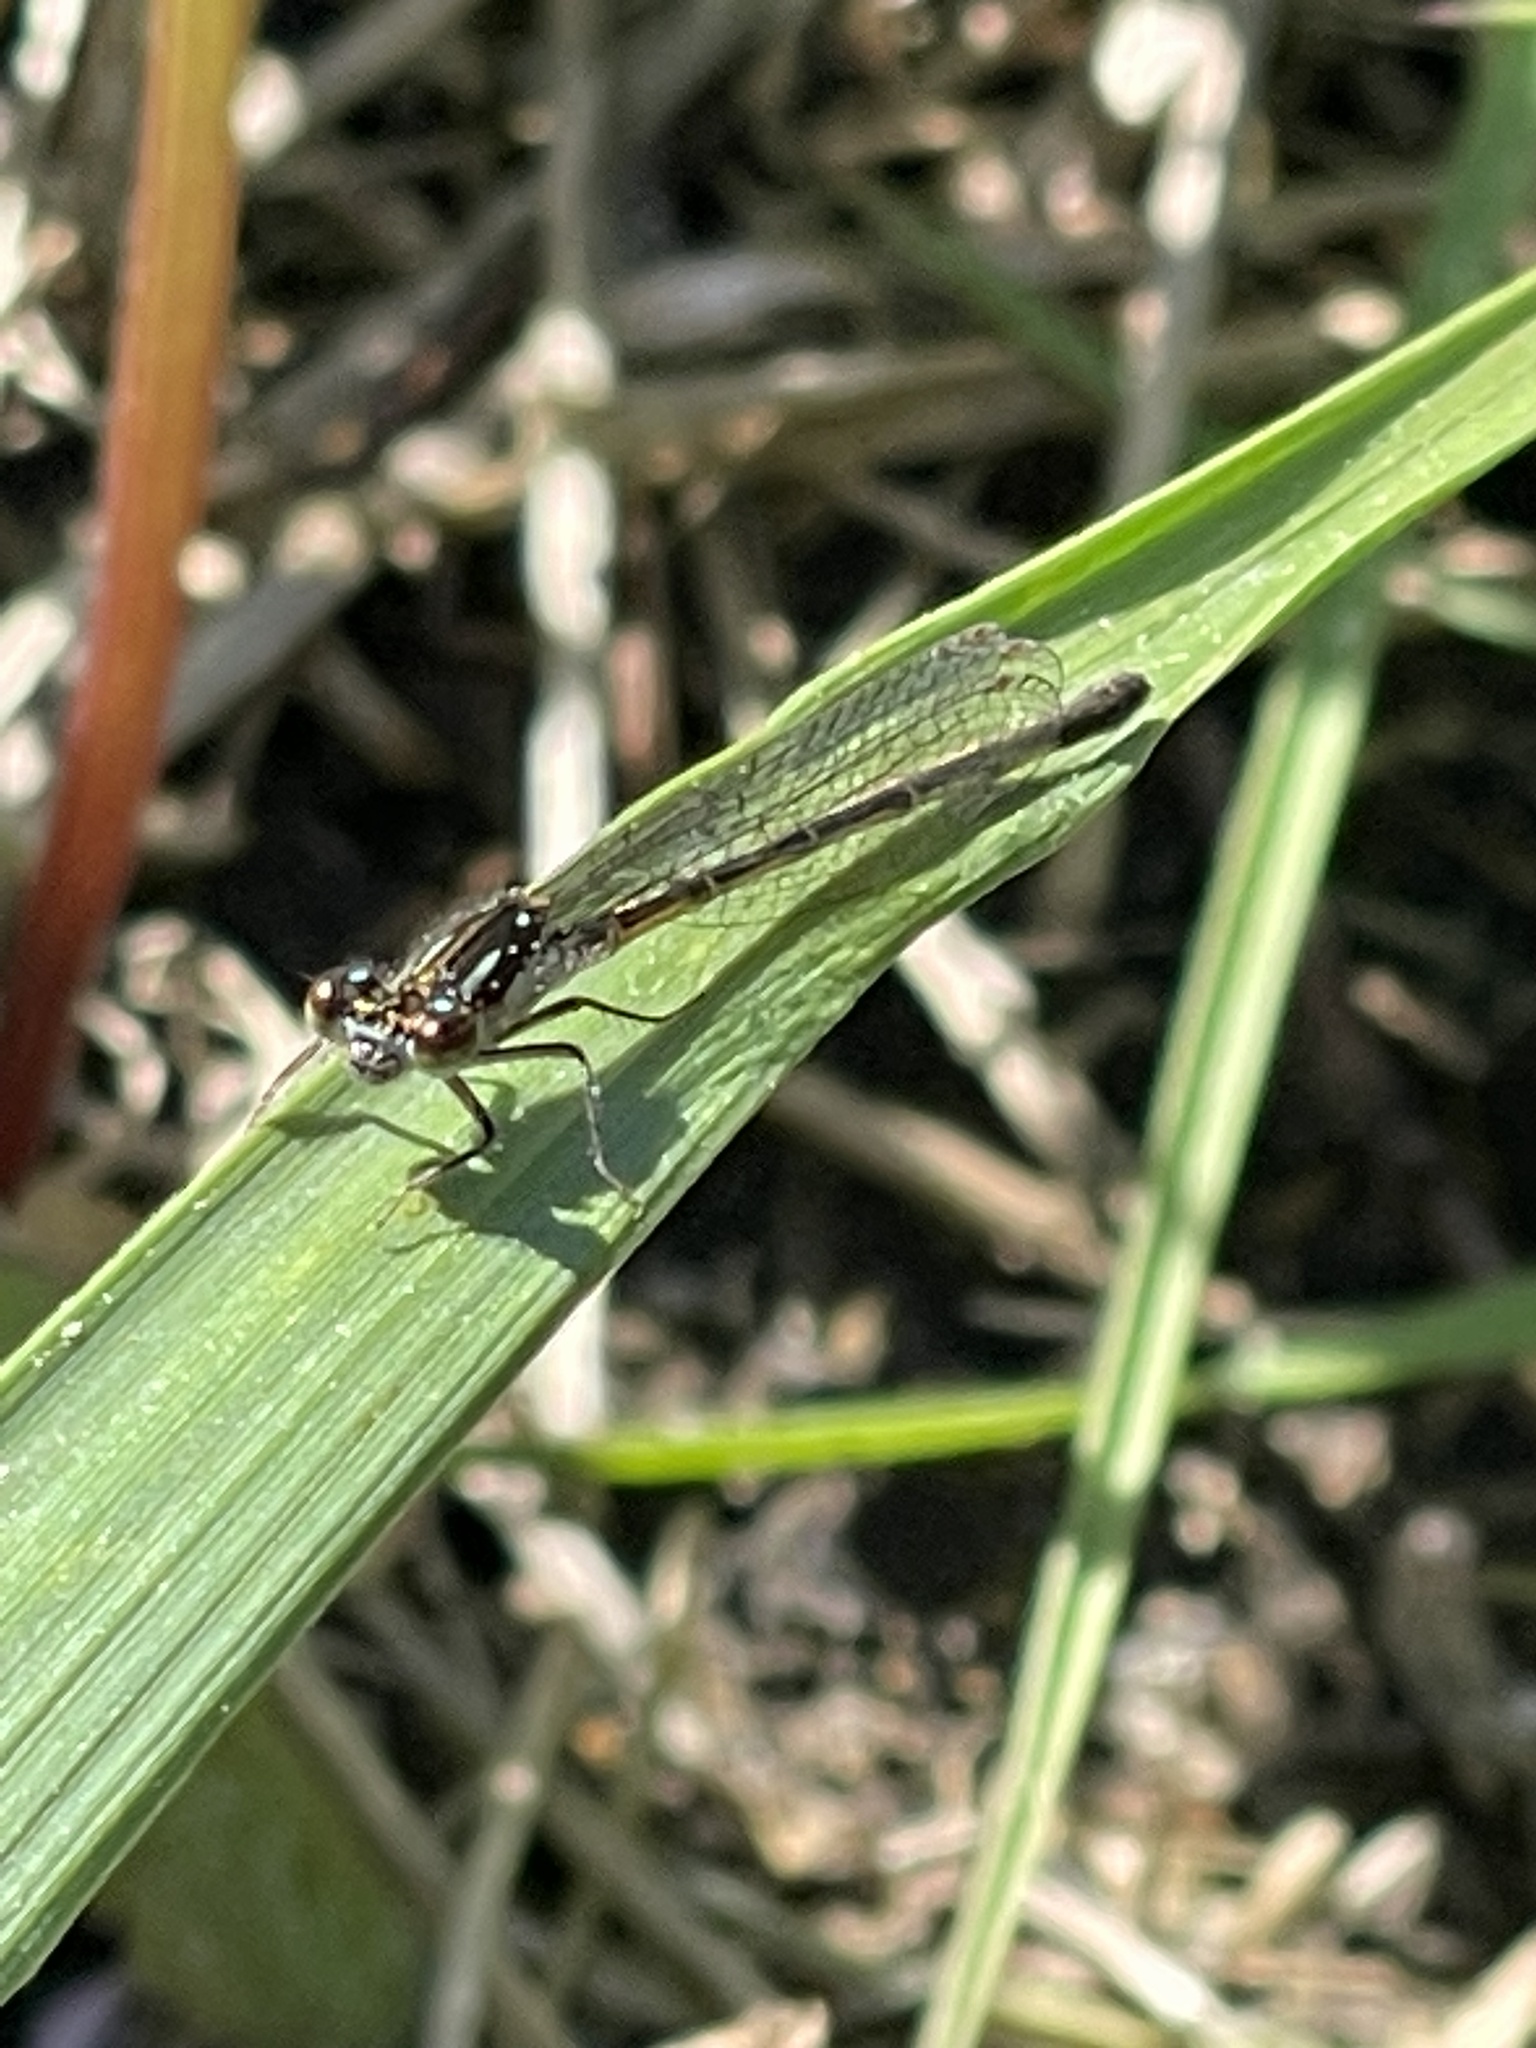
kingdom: Animalia
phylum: Arthropoda
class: Insecta
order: Odonata
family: Coenagrionidae
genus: Ischnura
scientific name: Ischnura posita
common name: Fragile forktail
